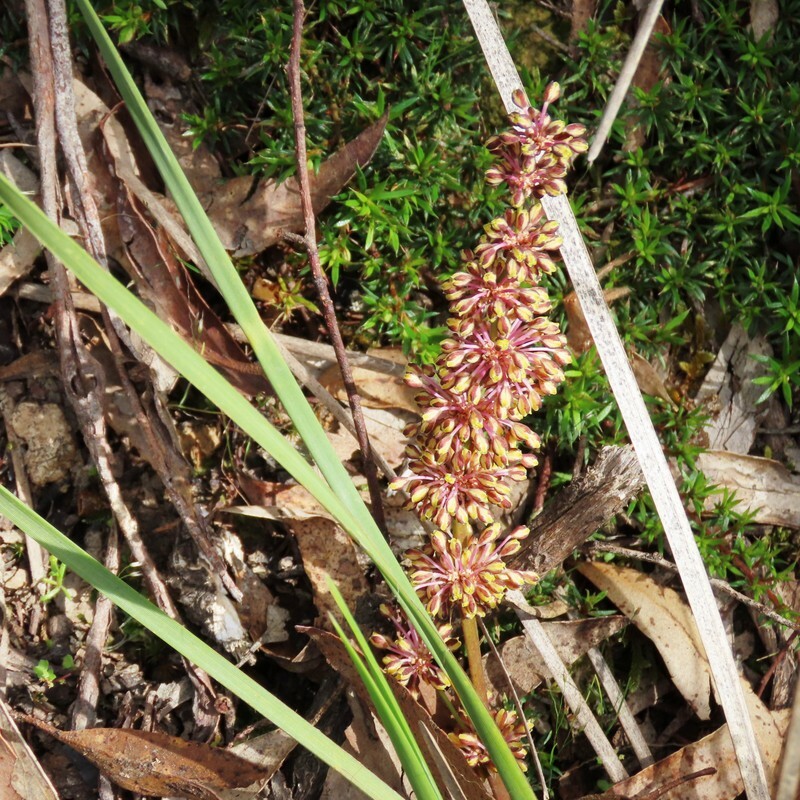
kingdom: Plantae
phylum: Tracheophyta
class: Liliopsida
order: Asparagales
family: Asparagaceae
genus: Lomandra
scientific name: Lomandra multiflora
